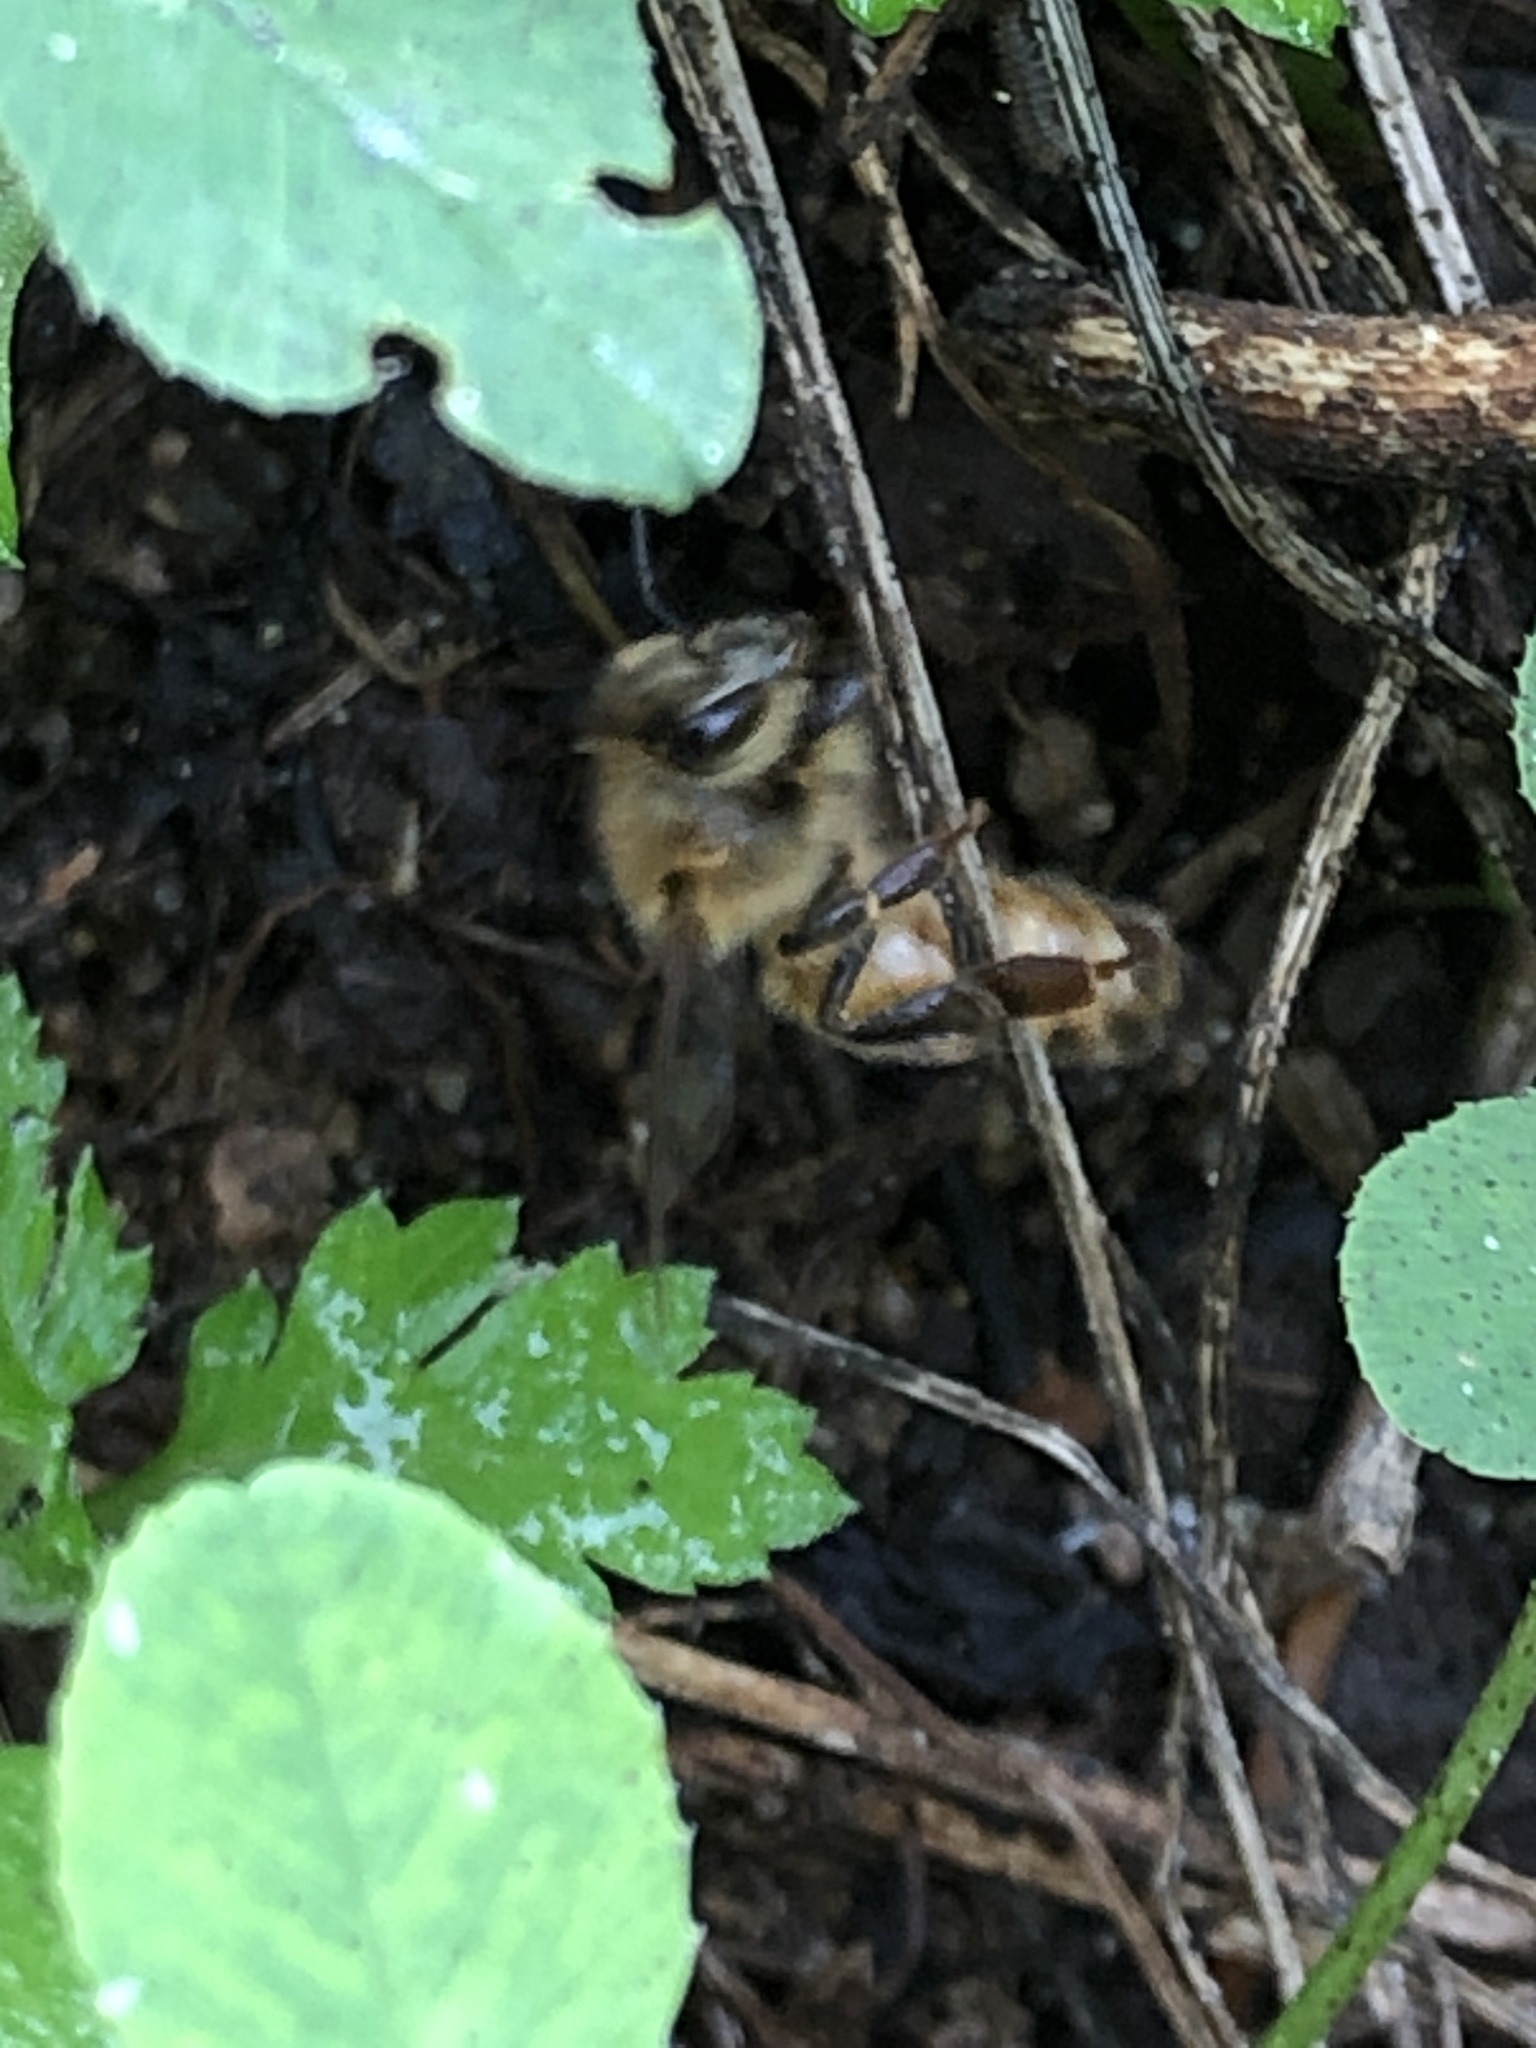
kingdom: Animalia
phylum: Arthropoda
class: Insecta
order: Hymenoptera
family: Apidae
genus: Apis
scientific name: Apis mellifera
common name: Honey bee
